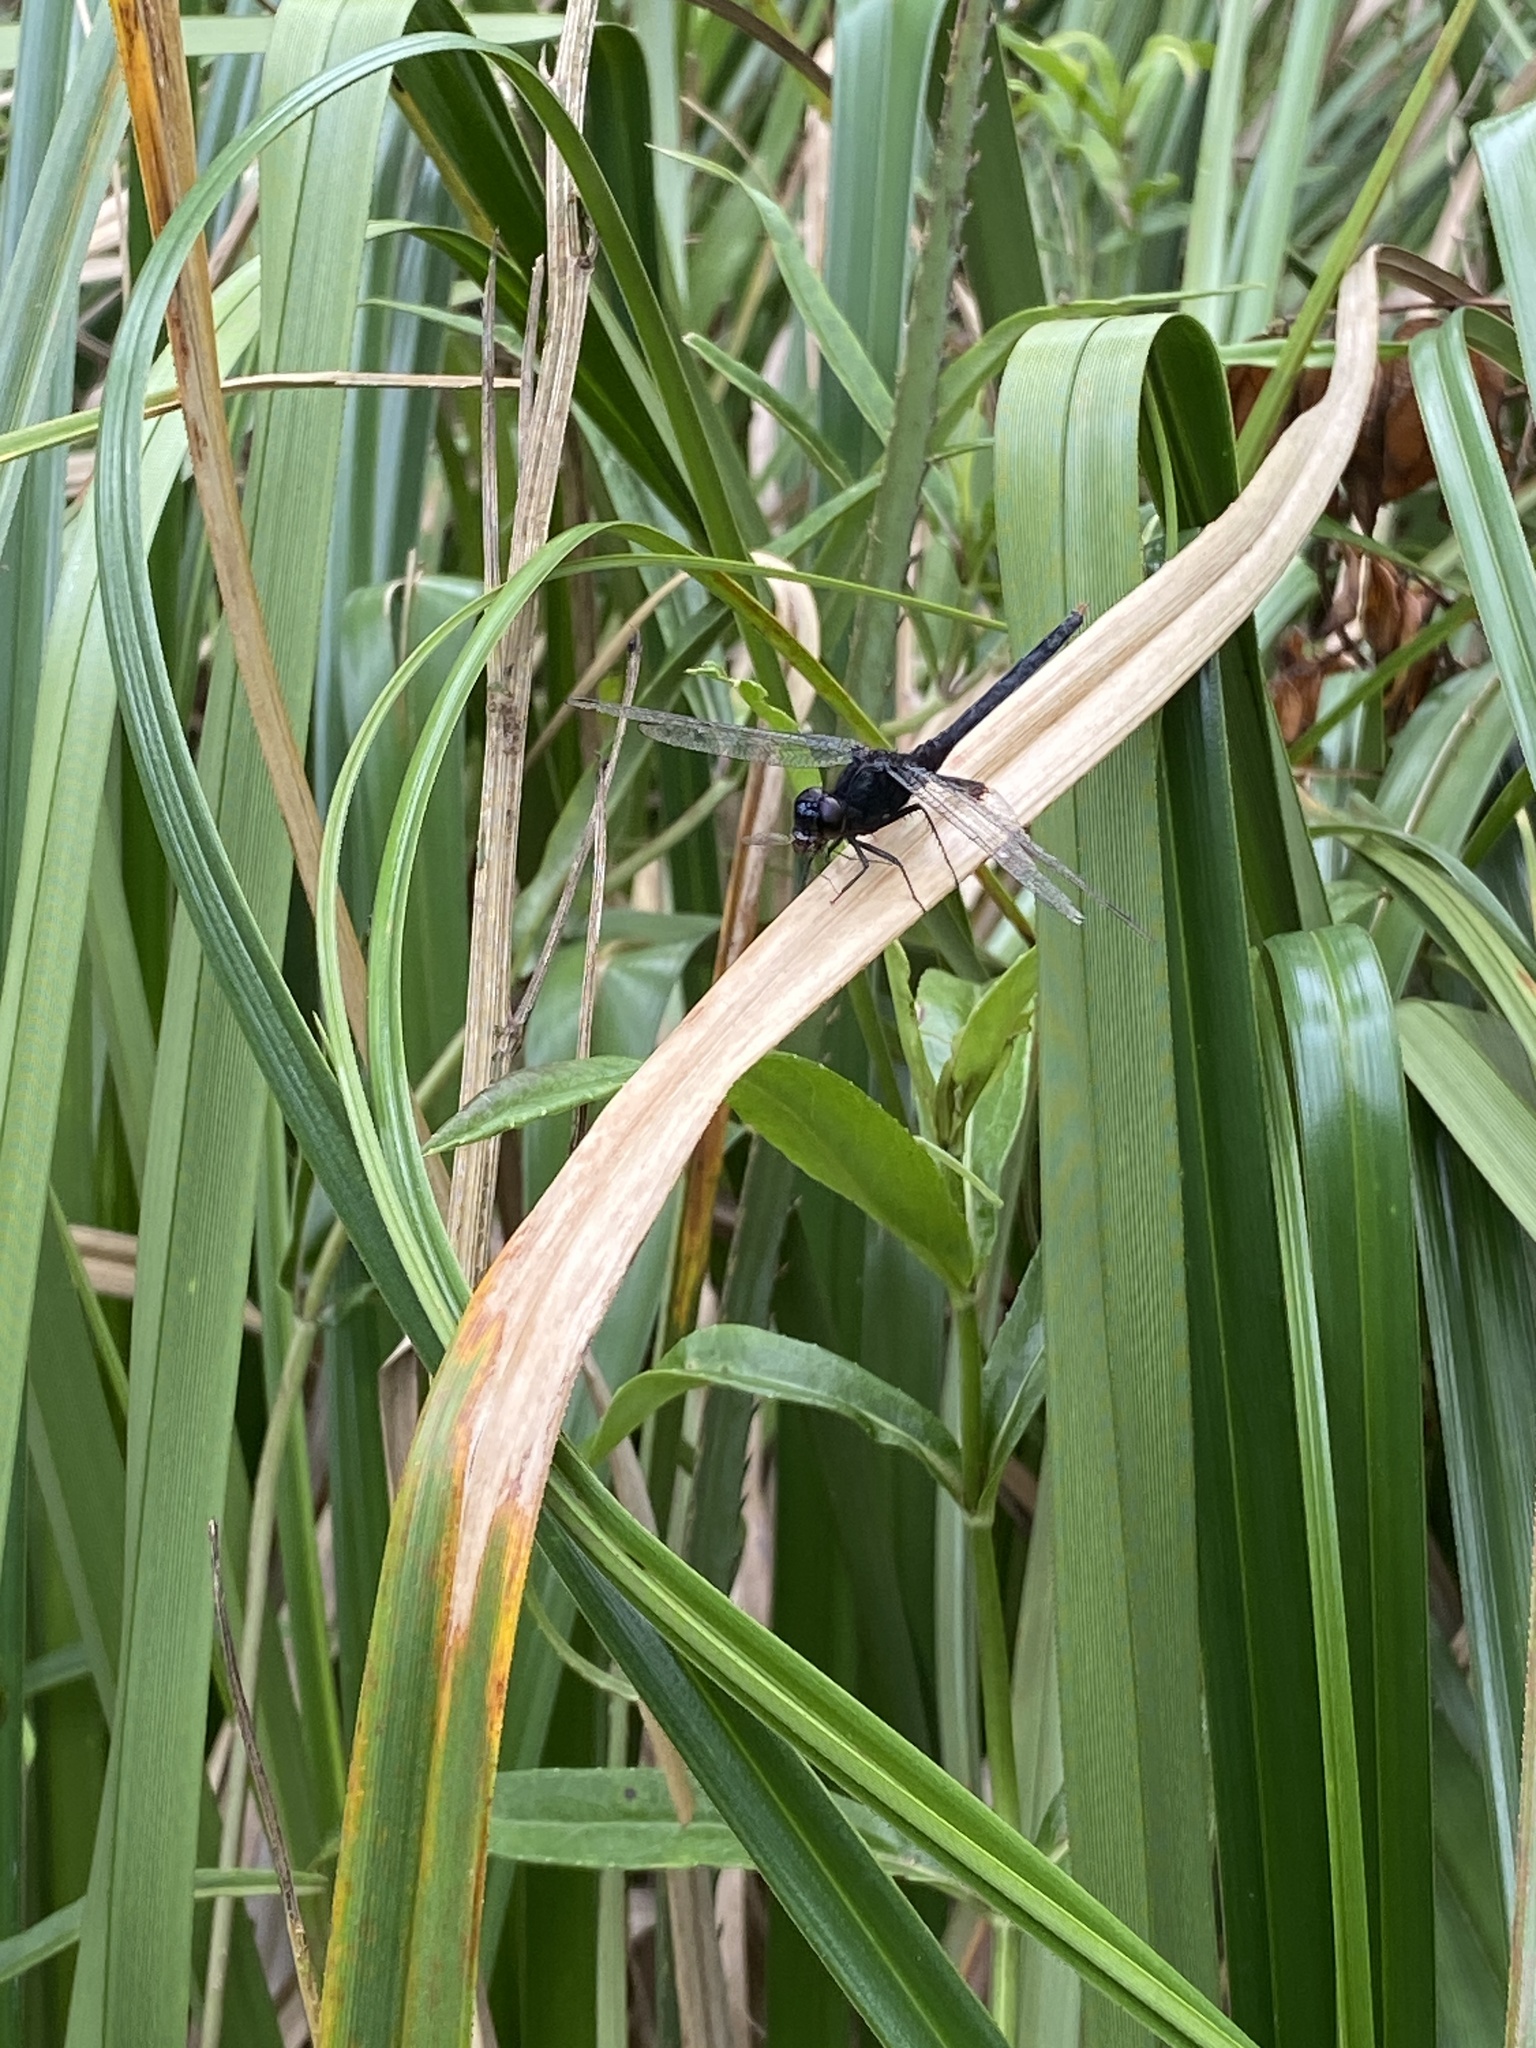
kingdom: Animalia
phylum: Arthropoda
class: Insecta
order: Odonata
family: Libellulidae
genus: Erythemis
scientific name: Erythemis attala
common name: Black pondhawk
